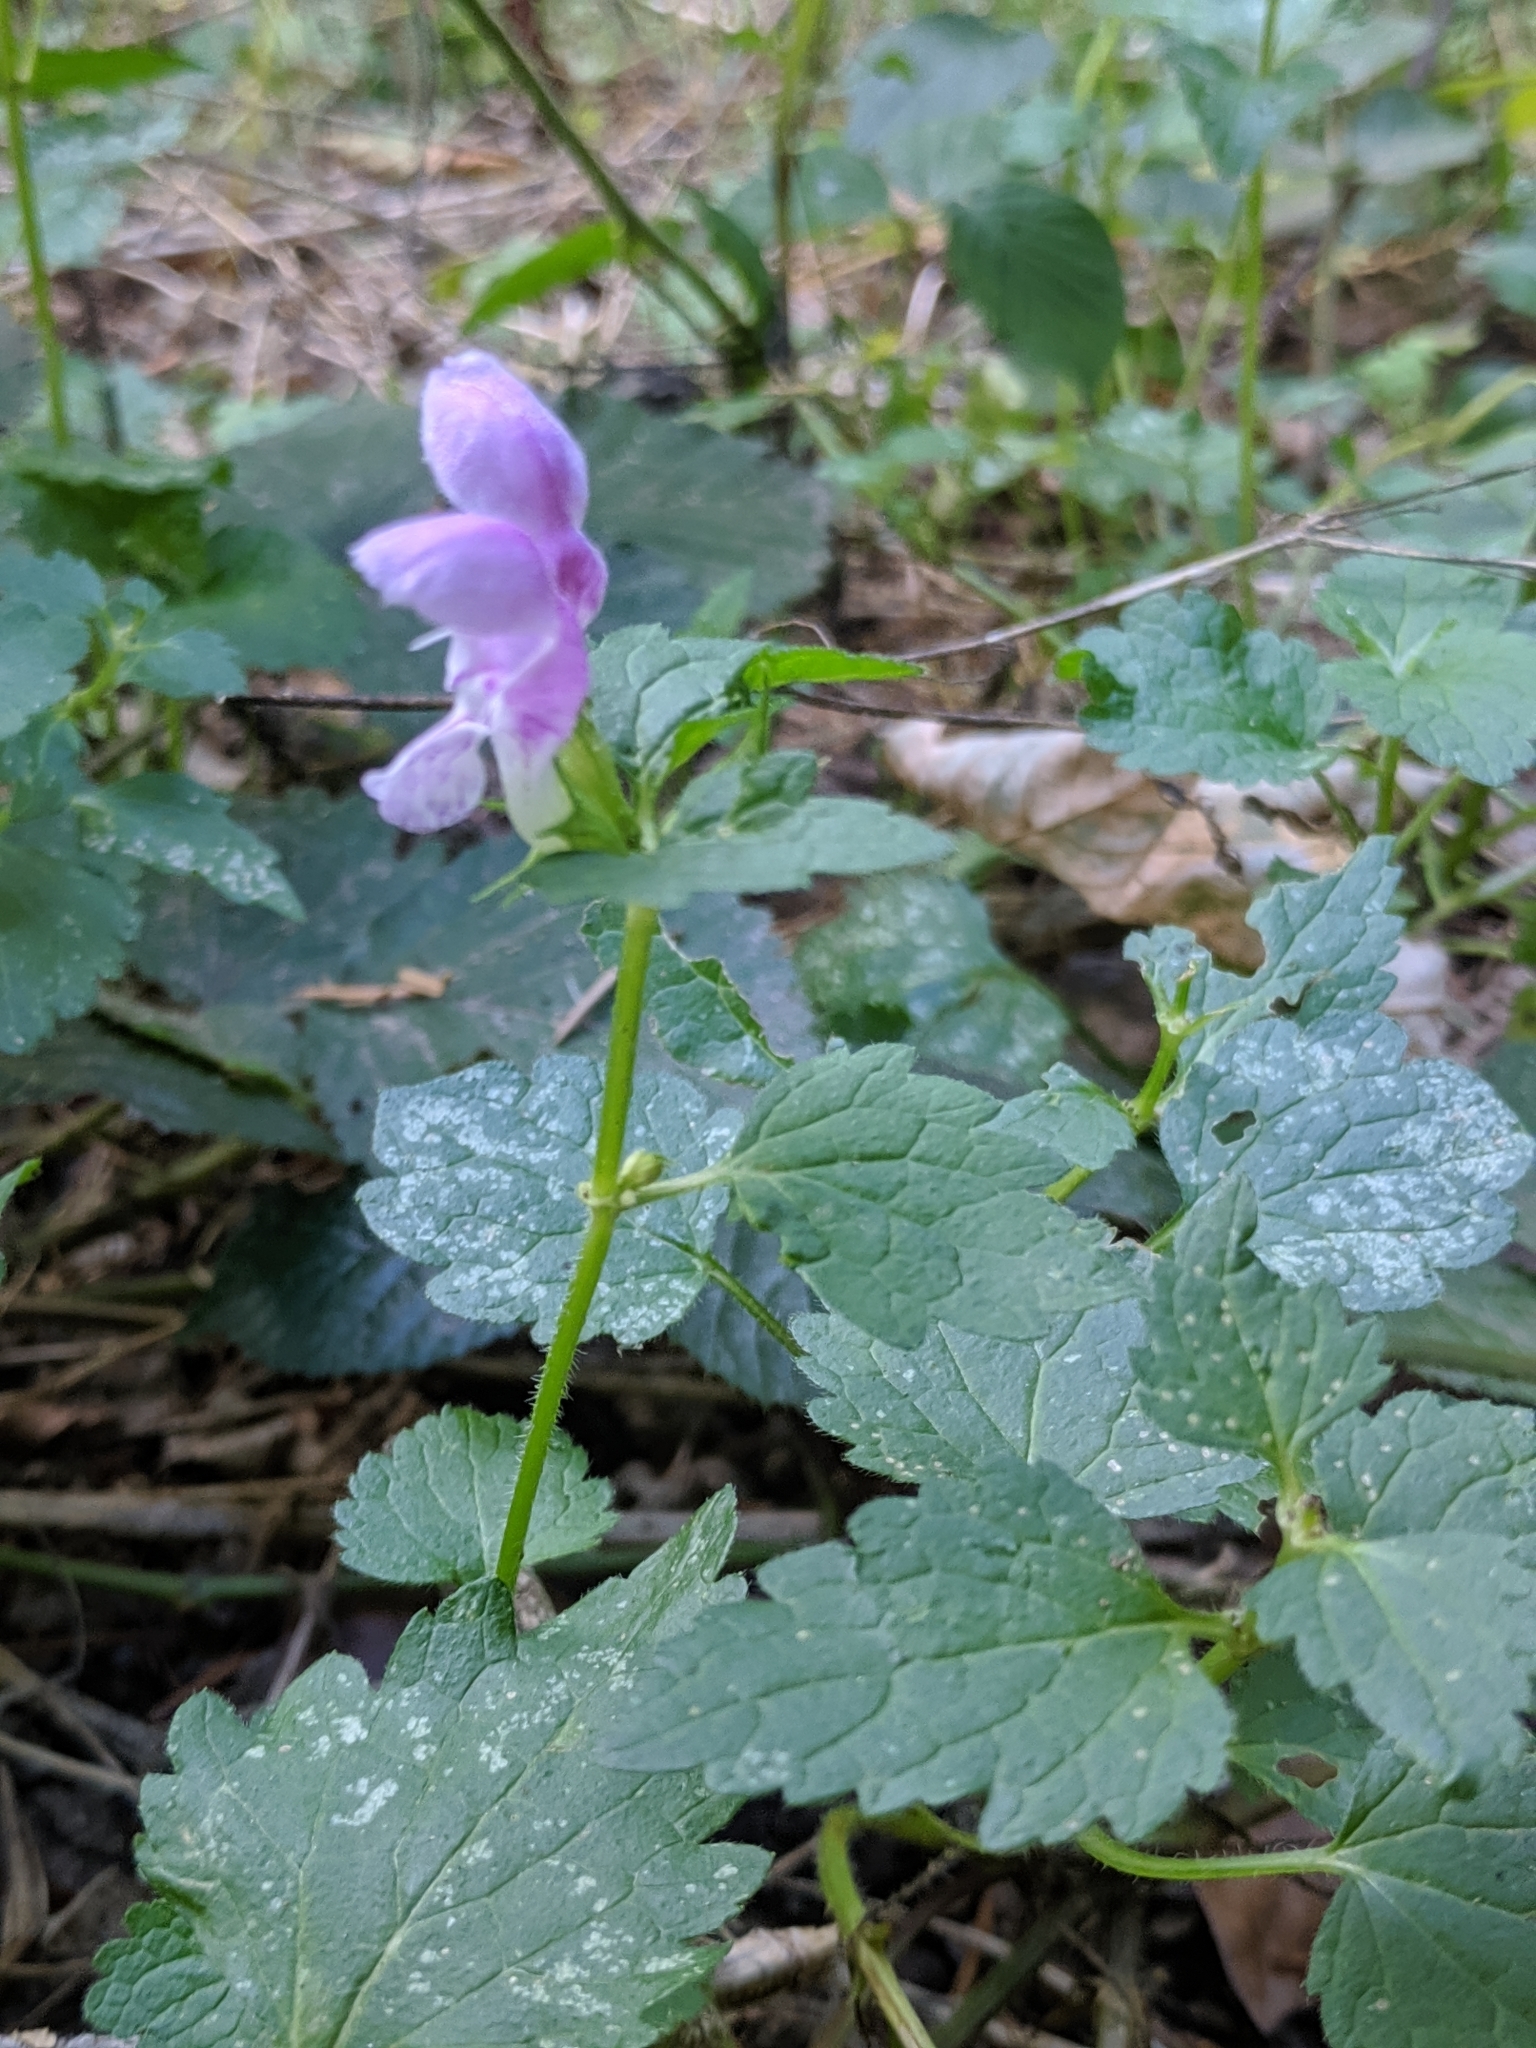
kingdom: Plantae
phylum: Tracheophyta
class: Magnoliopsida
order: Lamiales
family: Lamiaceae
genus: Lamium
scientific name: Lamium maculatum
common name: Spotted dead-nettle
